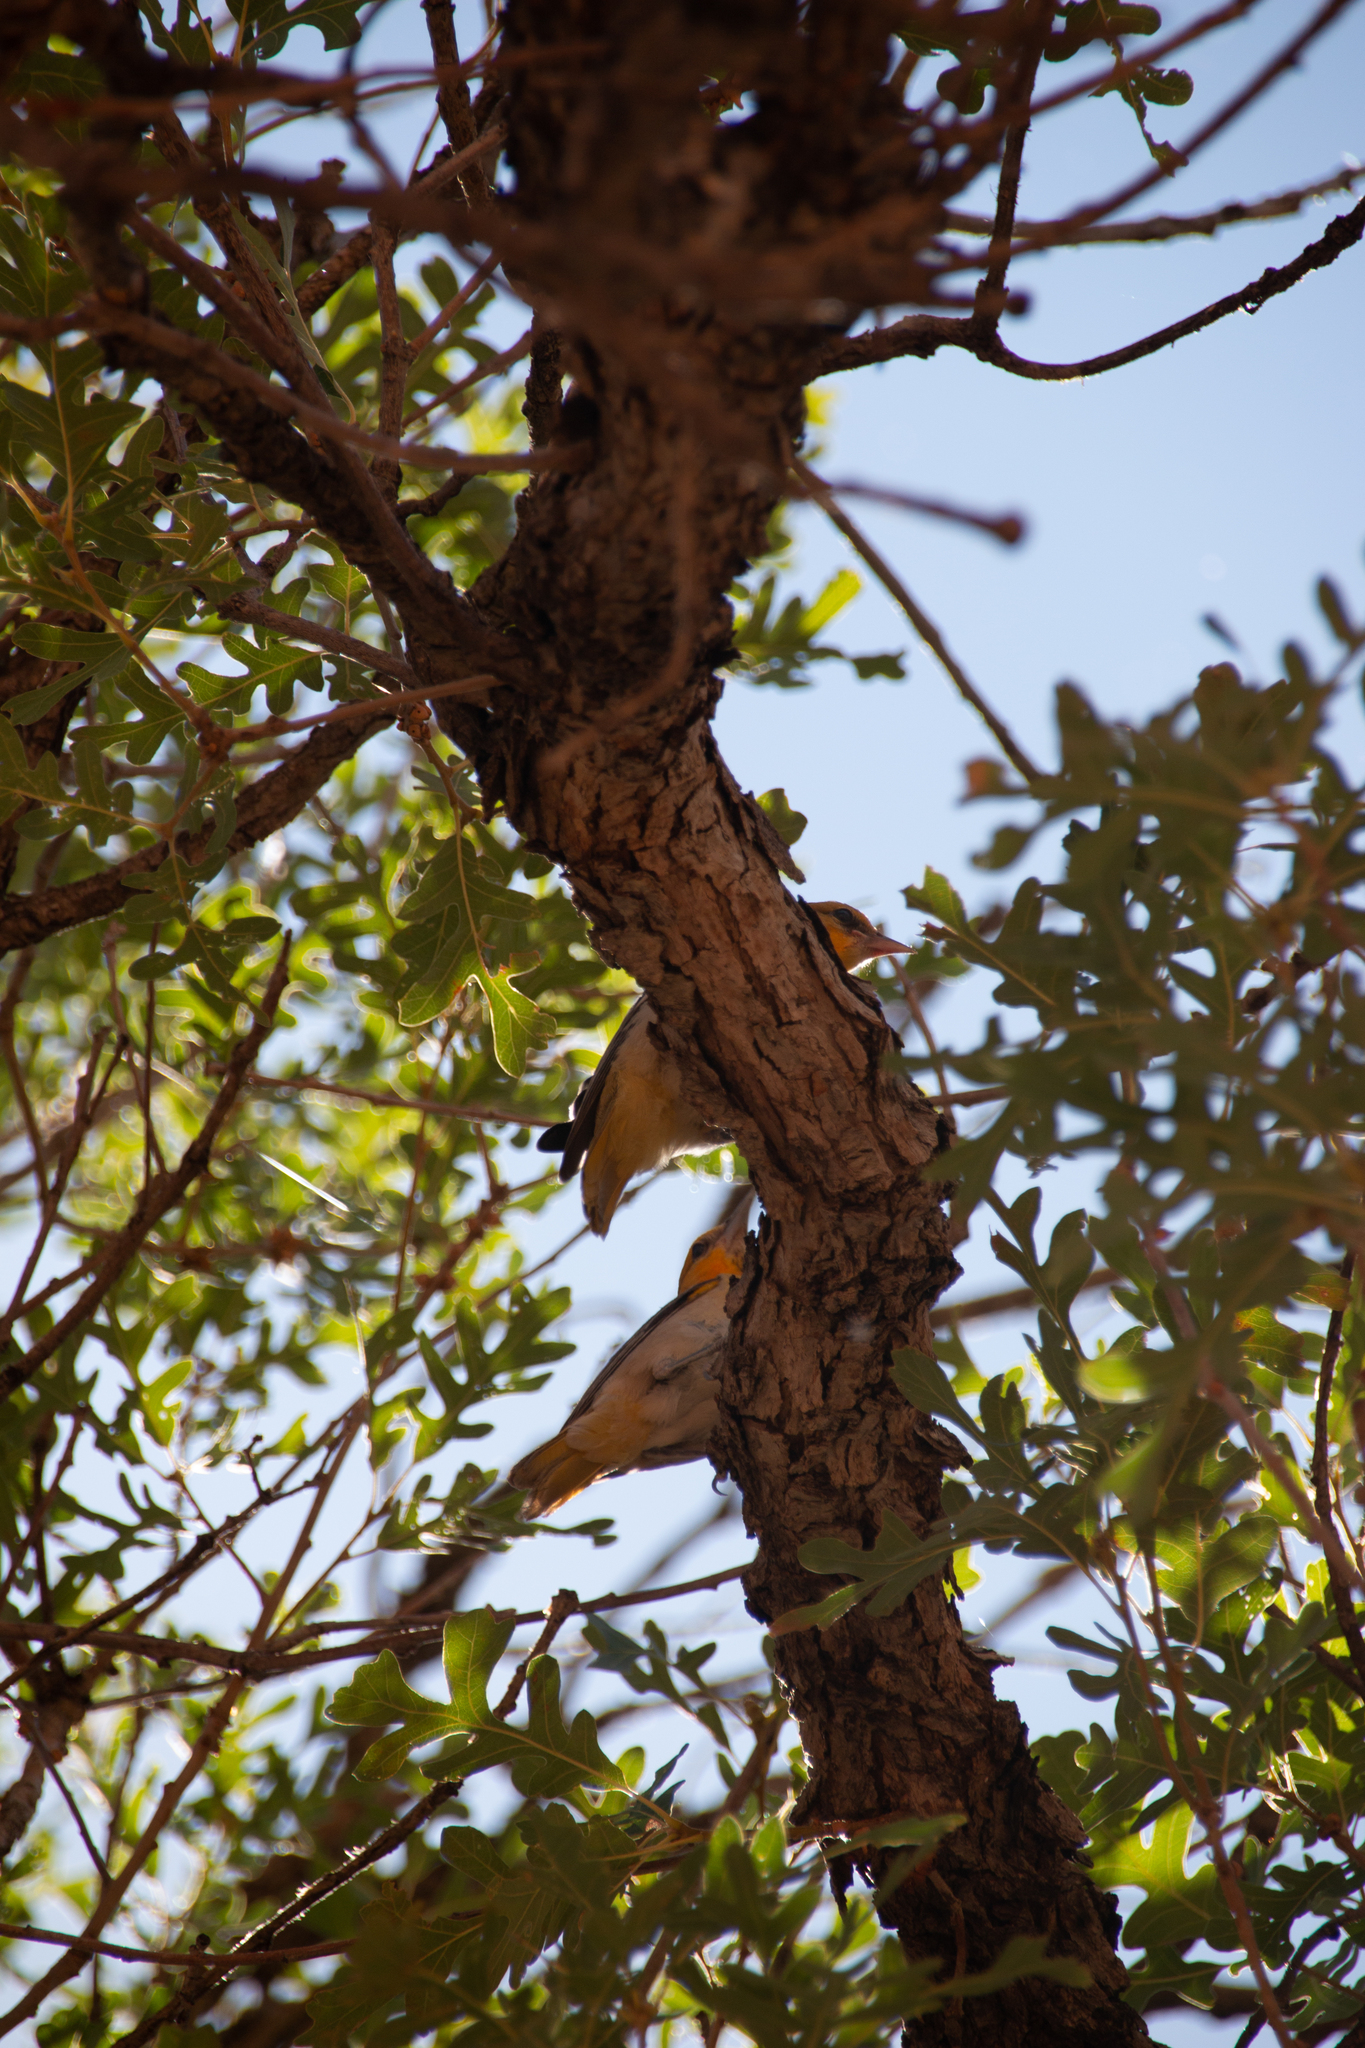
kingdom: Animalia
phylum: Chordata
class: Aves
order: Passeriformes
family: Icteridae
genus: Icterus
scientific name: Icterus bullockii
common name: Bullock's oriole
